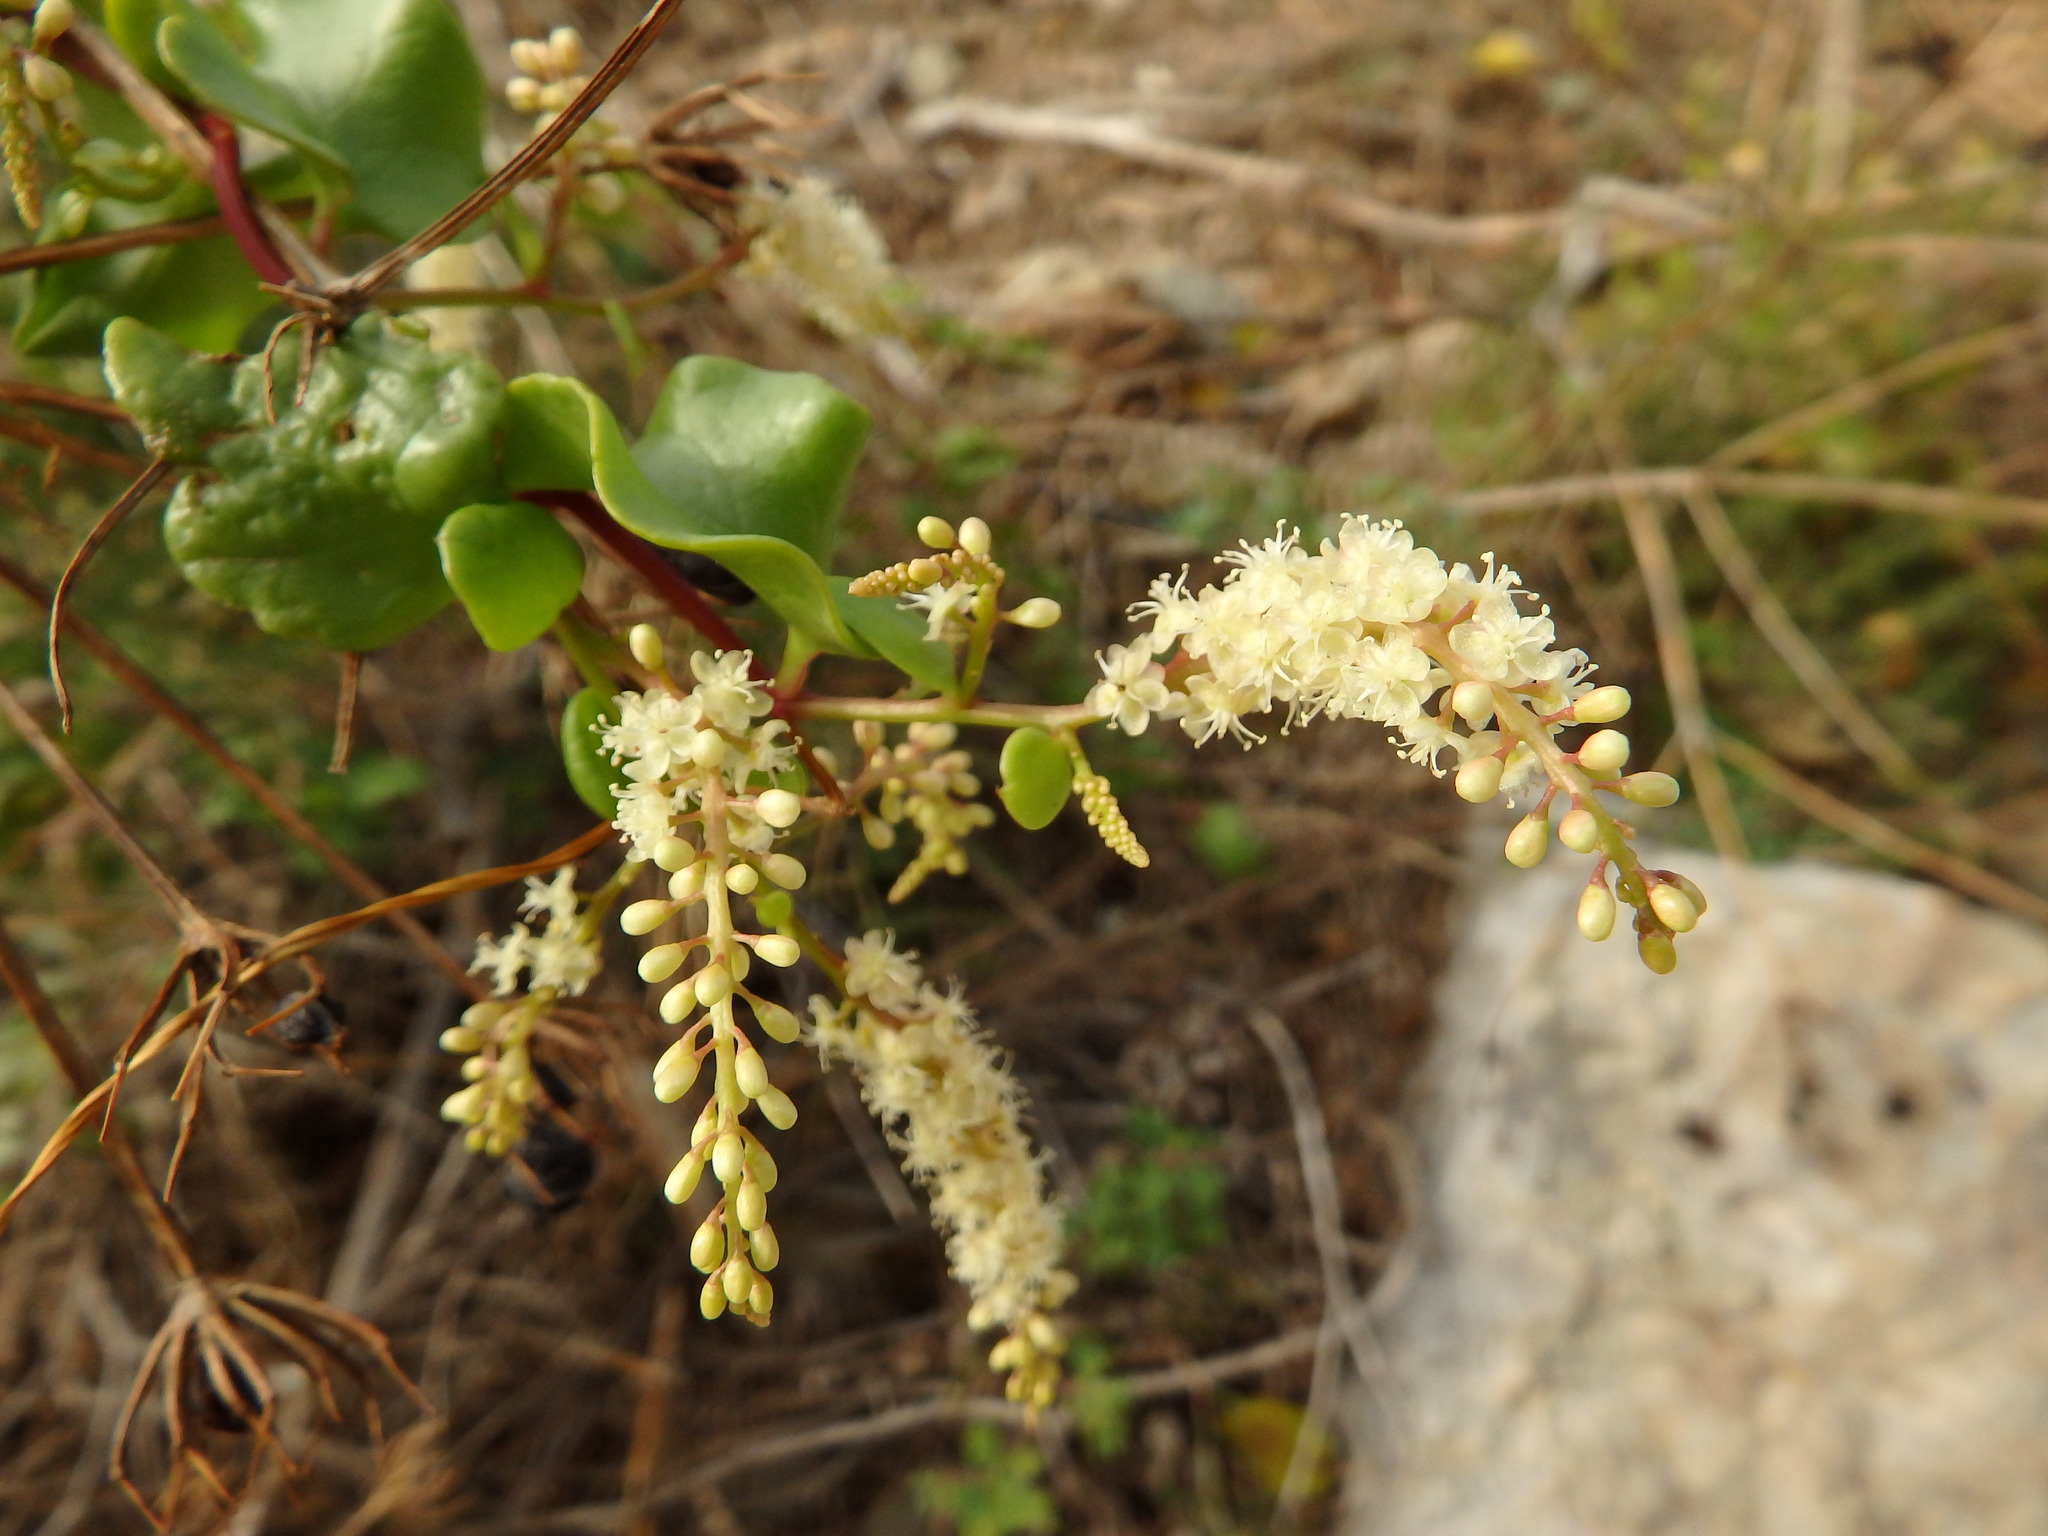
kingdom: Plantae
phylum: Tracheophyta
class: Magnoliopsida
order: Caryophyllales
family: Basellaceae
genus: Anredera
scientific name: Anredera cordifolia
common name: Heartleaf madeiravine
